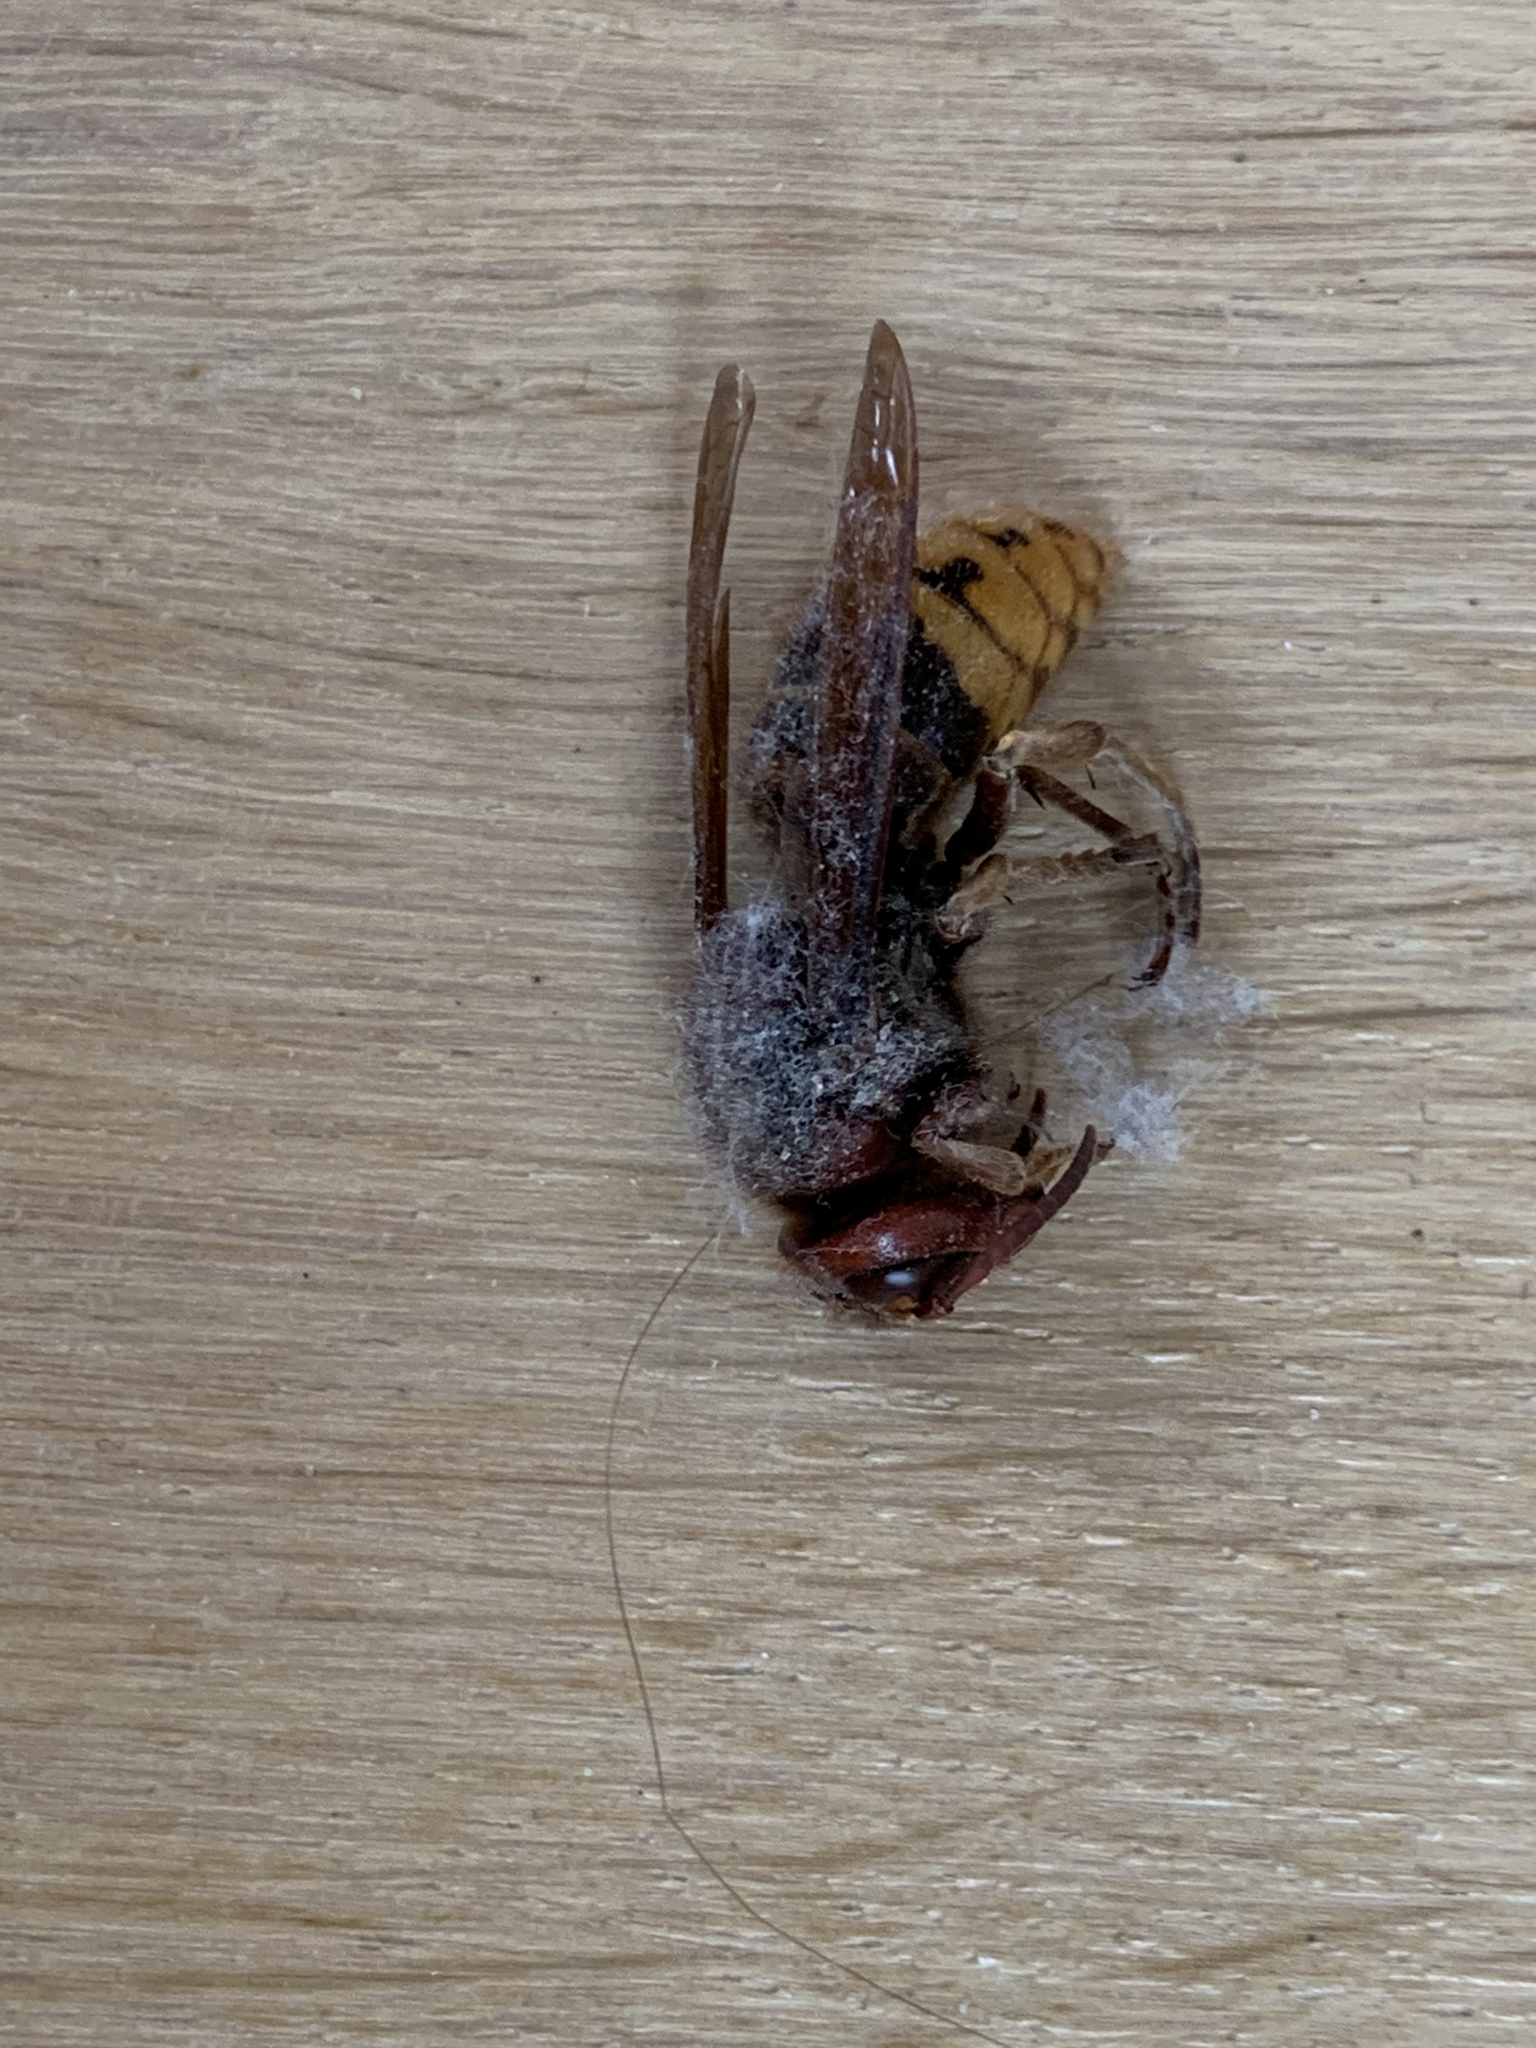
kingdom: Animalia
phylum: Arthropoda
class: Insecta
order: Hymenoptera
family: Vespidae
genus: Vespa
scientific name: Vespa crabro
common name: Hornet
